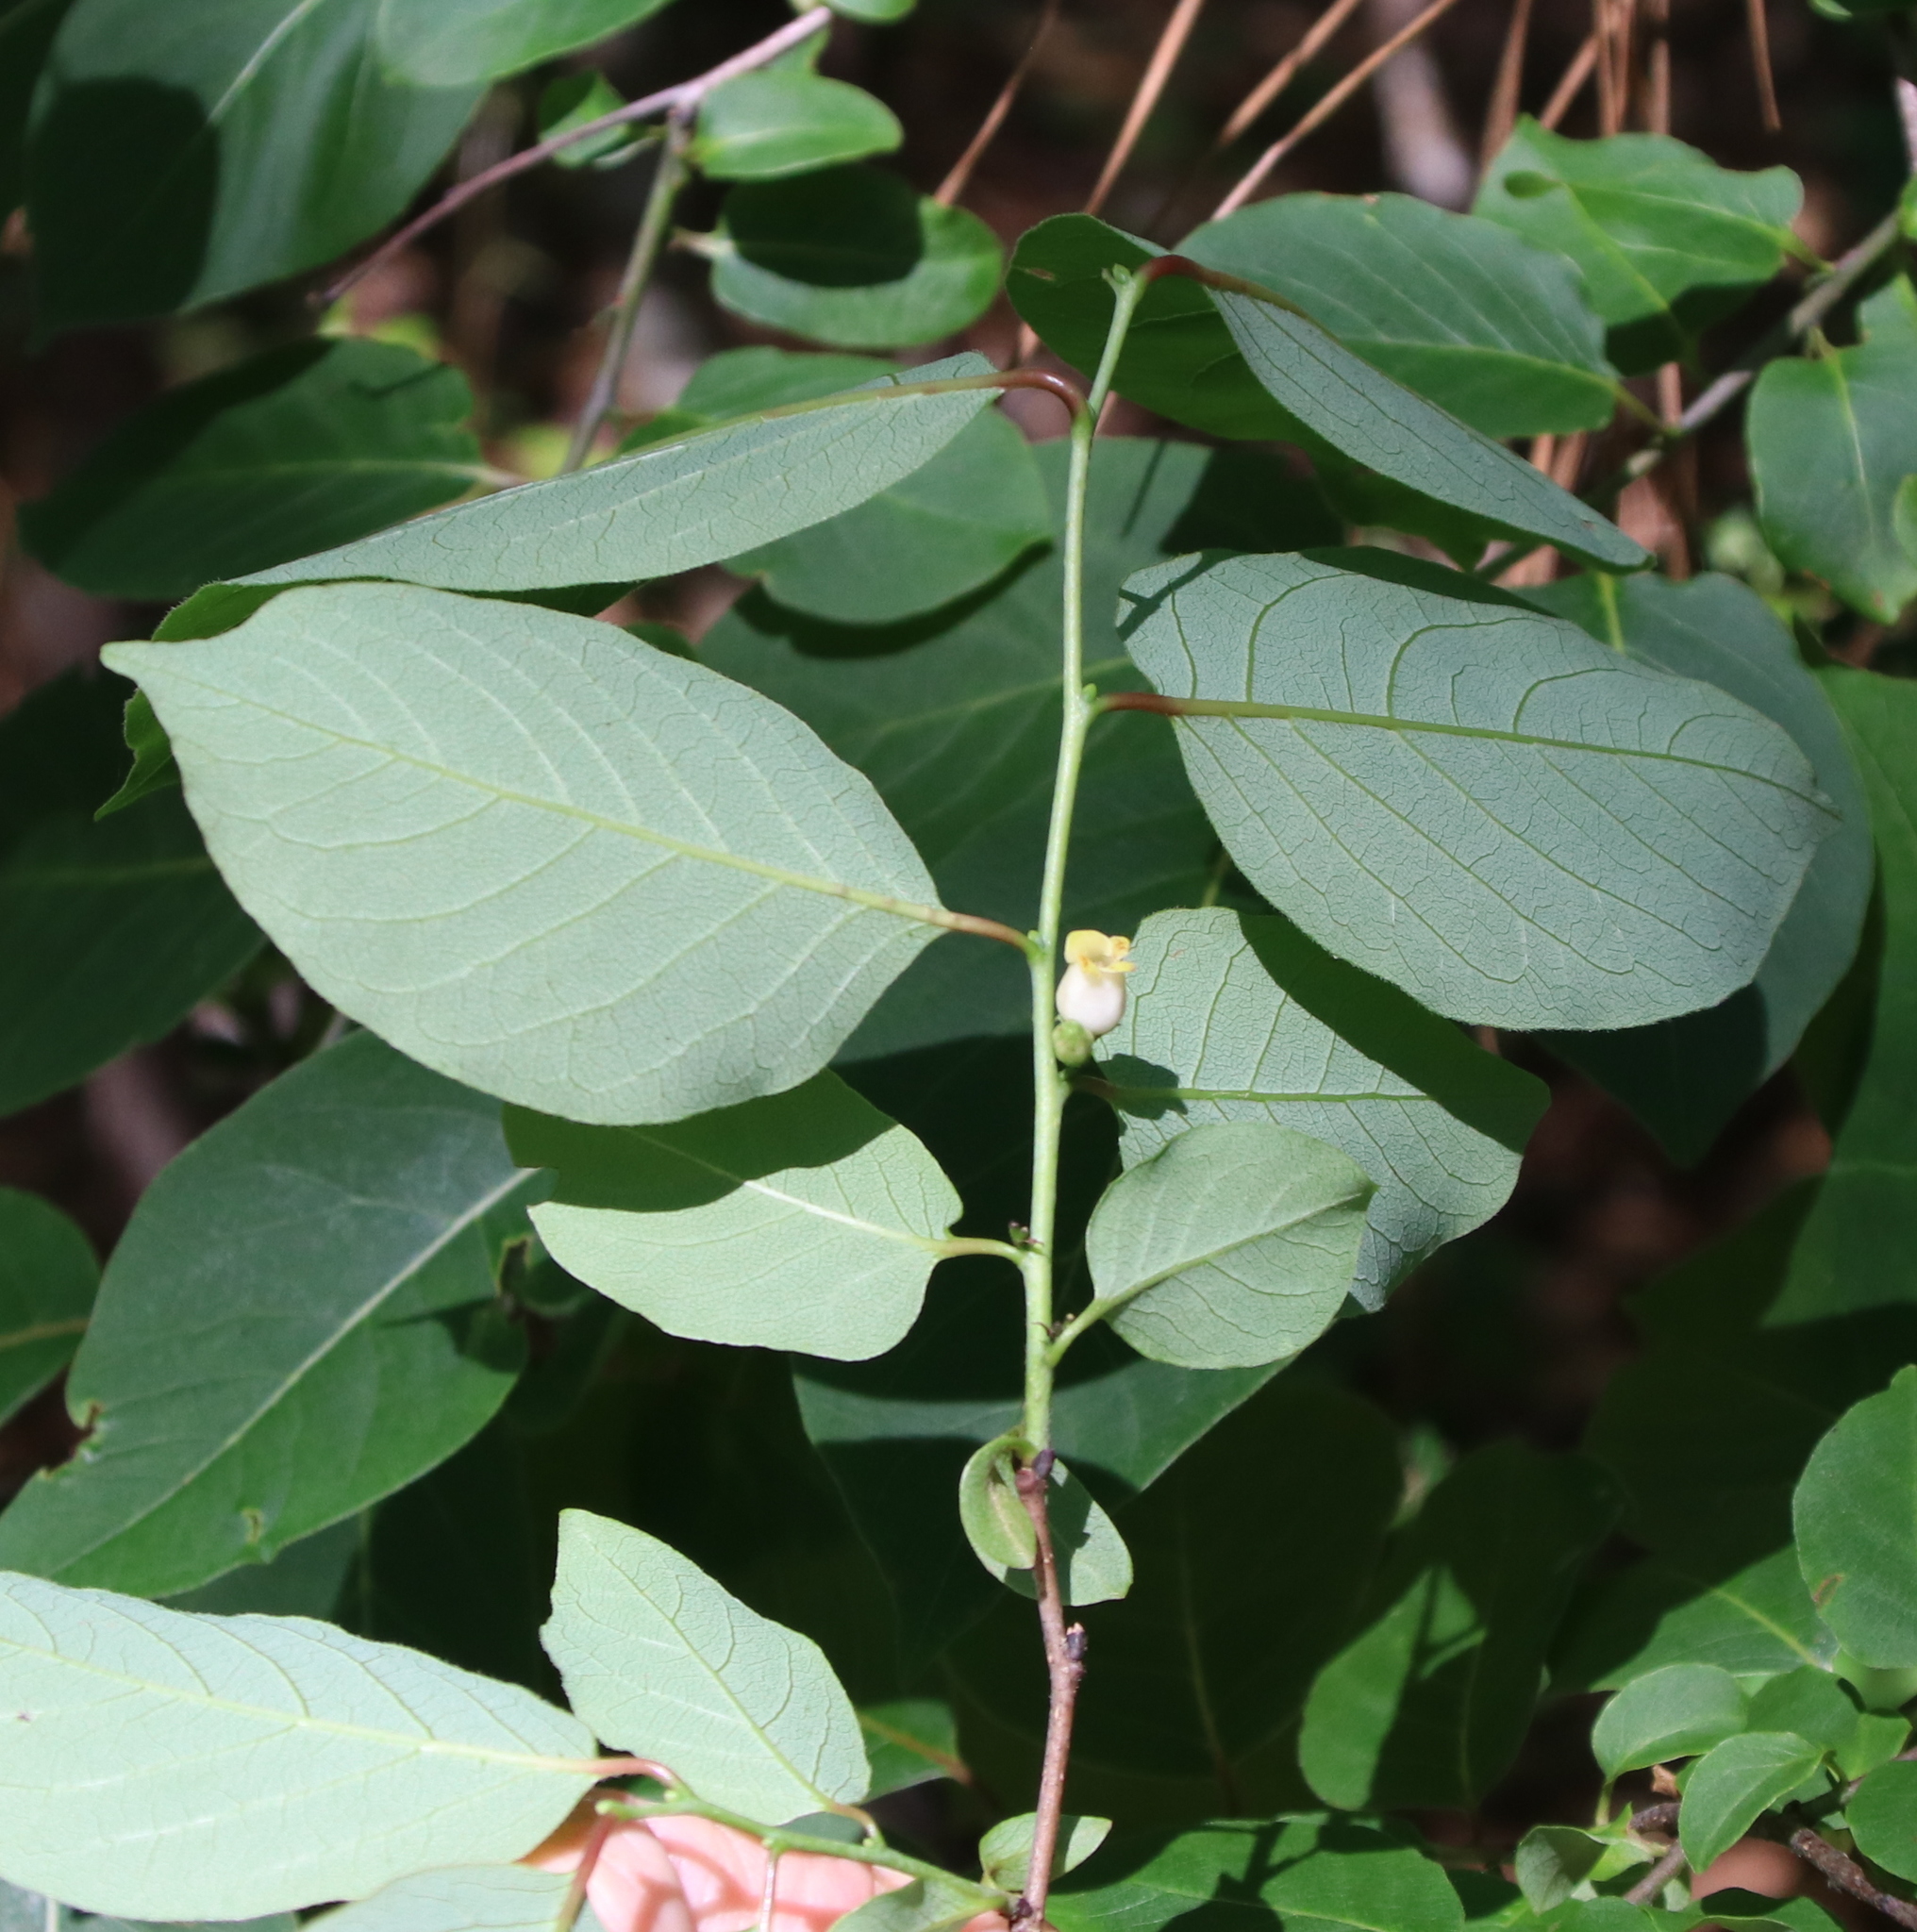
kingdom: Plantae
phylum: Tracheophyta
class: Magnoliopsida
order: Ericales
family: Ebenaceae
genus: Diospyros
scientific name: Diospyros virginiana
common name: Persimmon
